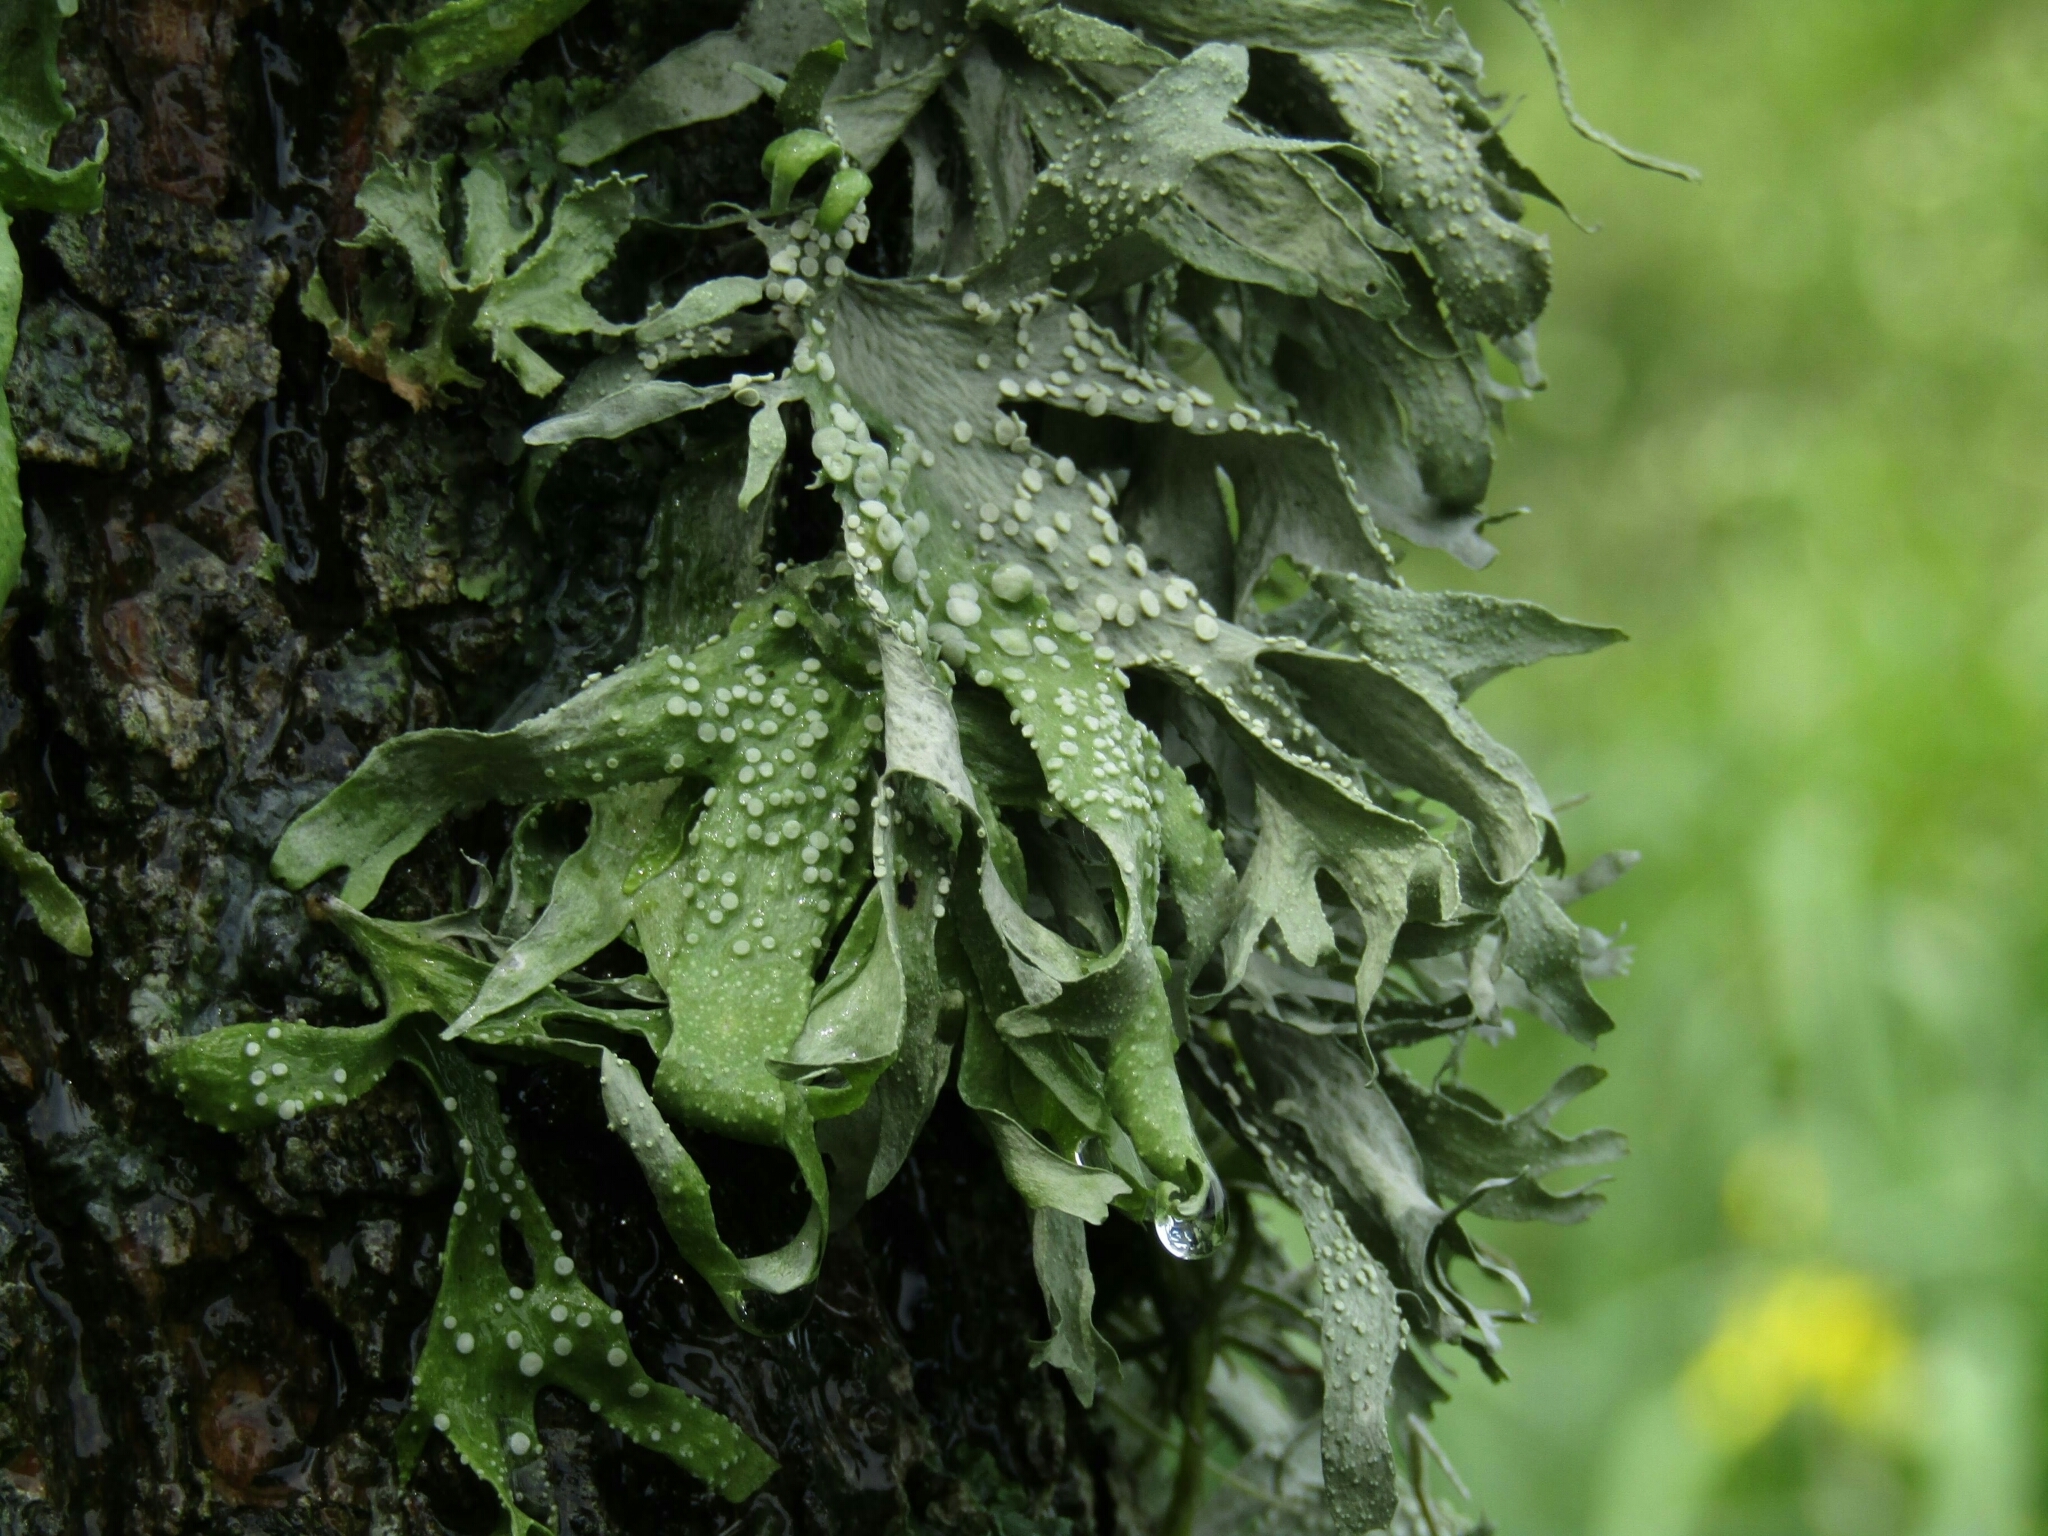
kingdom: Fungi
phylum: Ascomycota
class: Lecanoromycetes
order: Lecanorales
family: Ramalinaceae
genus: Ramalina
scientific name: Ramalina celastri
